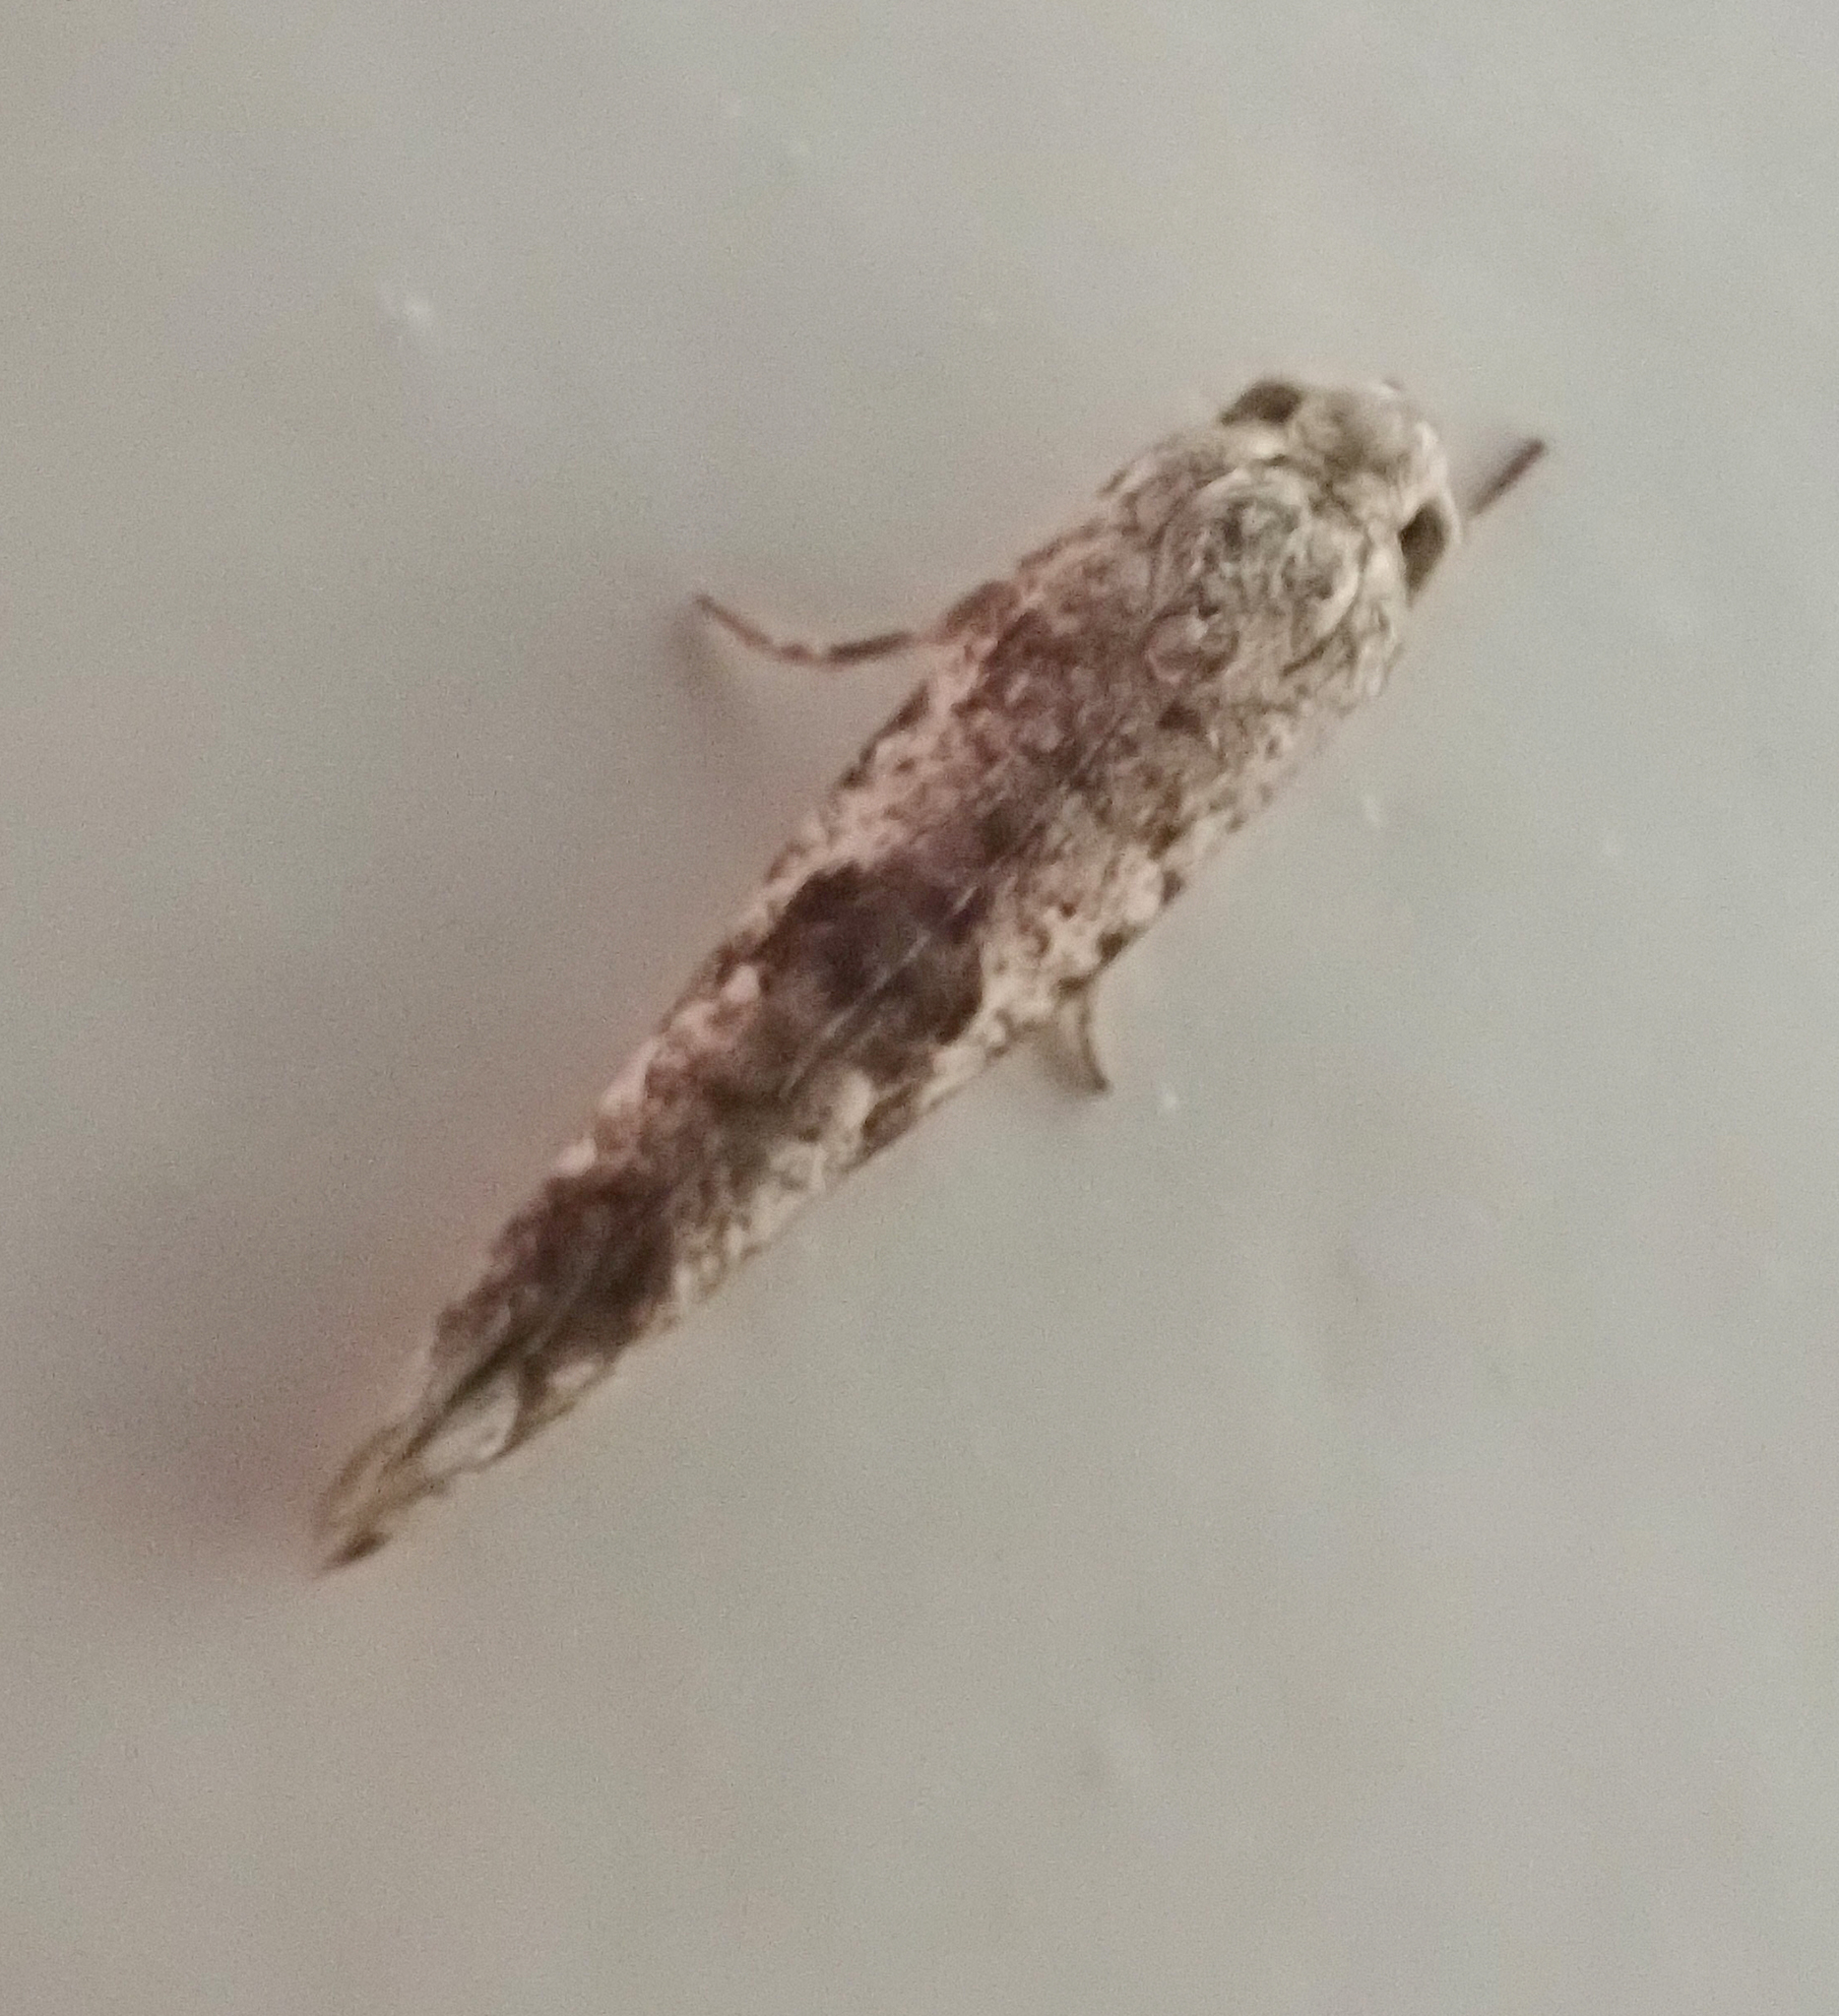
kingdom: Animalia
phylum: Arthropoda
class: Insecta
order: Lepidoptera
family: Praydidae
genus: Prays
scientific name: Prays nephelomima
